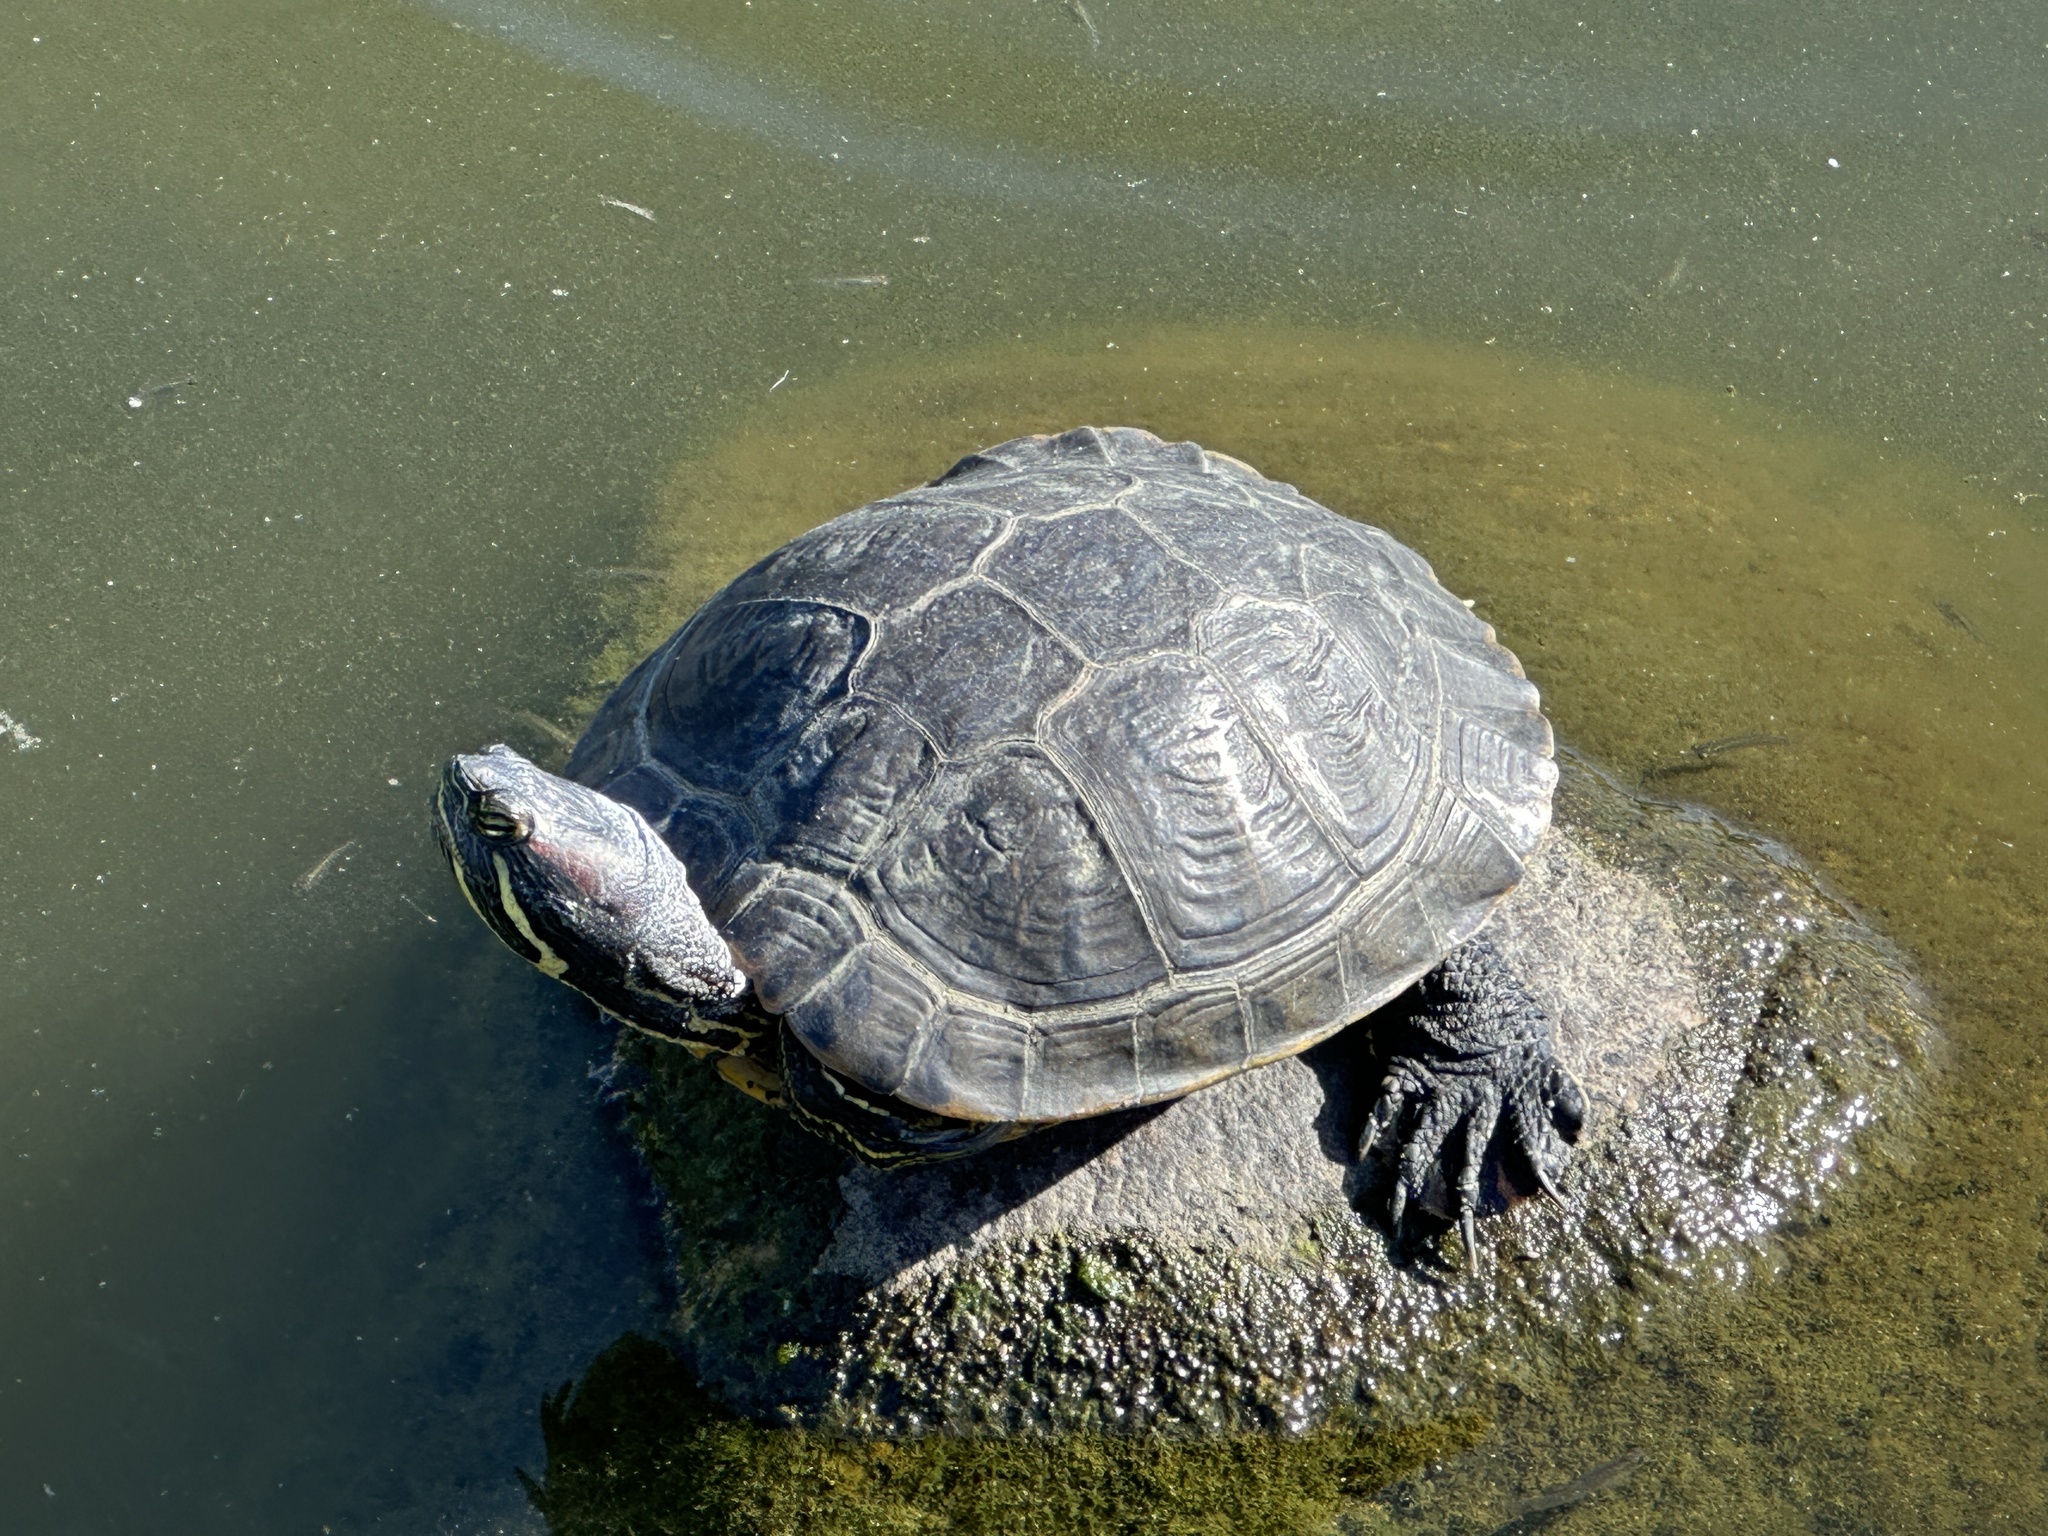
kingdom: Animalia
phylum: Chordata
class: Testudines
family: Emydidae
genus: Trachemys
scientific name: Trachemys scripta
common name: Slider
